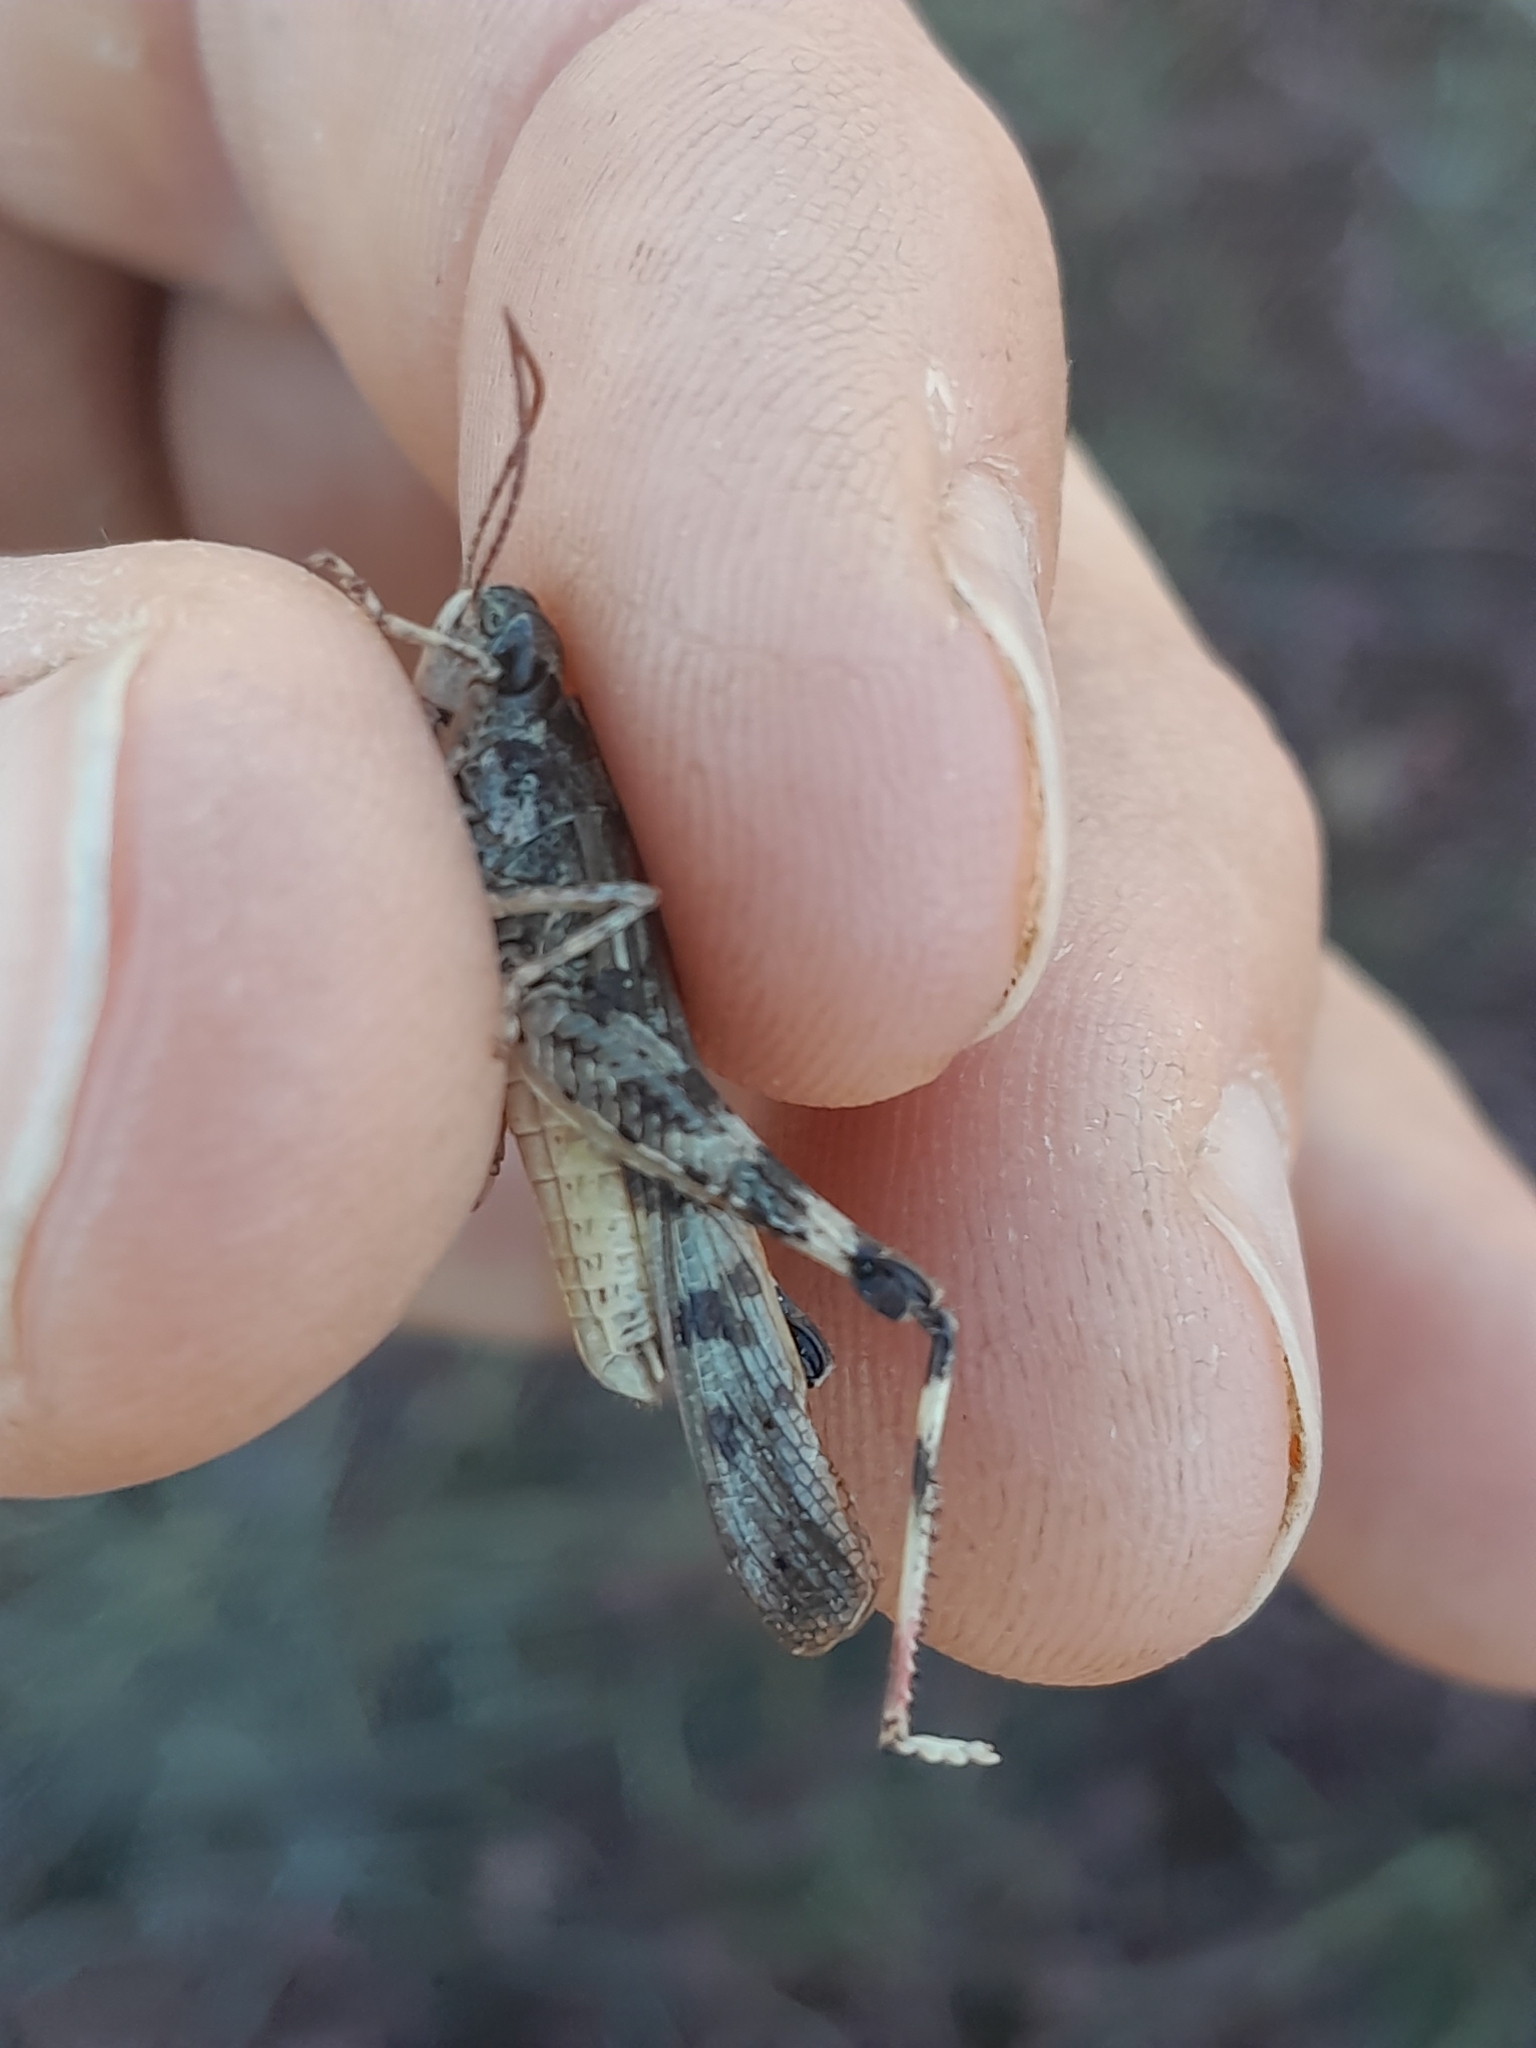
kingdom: Animalia
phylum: Arthropoda
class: Insecta
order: Orthoptera
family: Acrididae
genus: Aiolopus
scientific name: Aiolopus thalassinus
